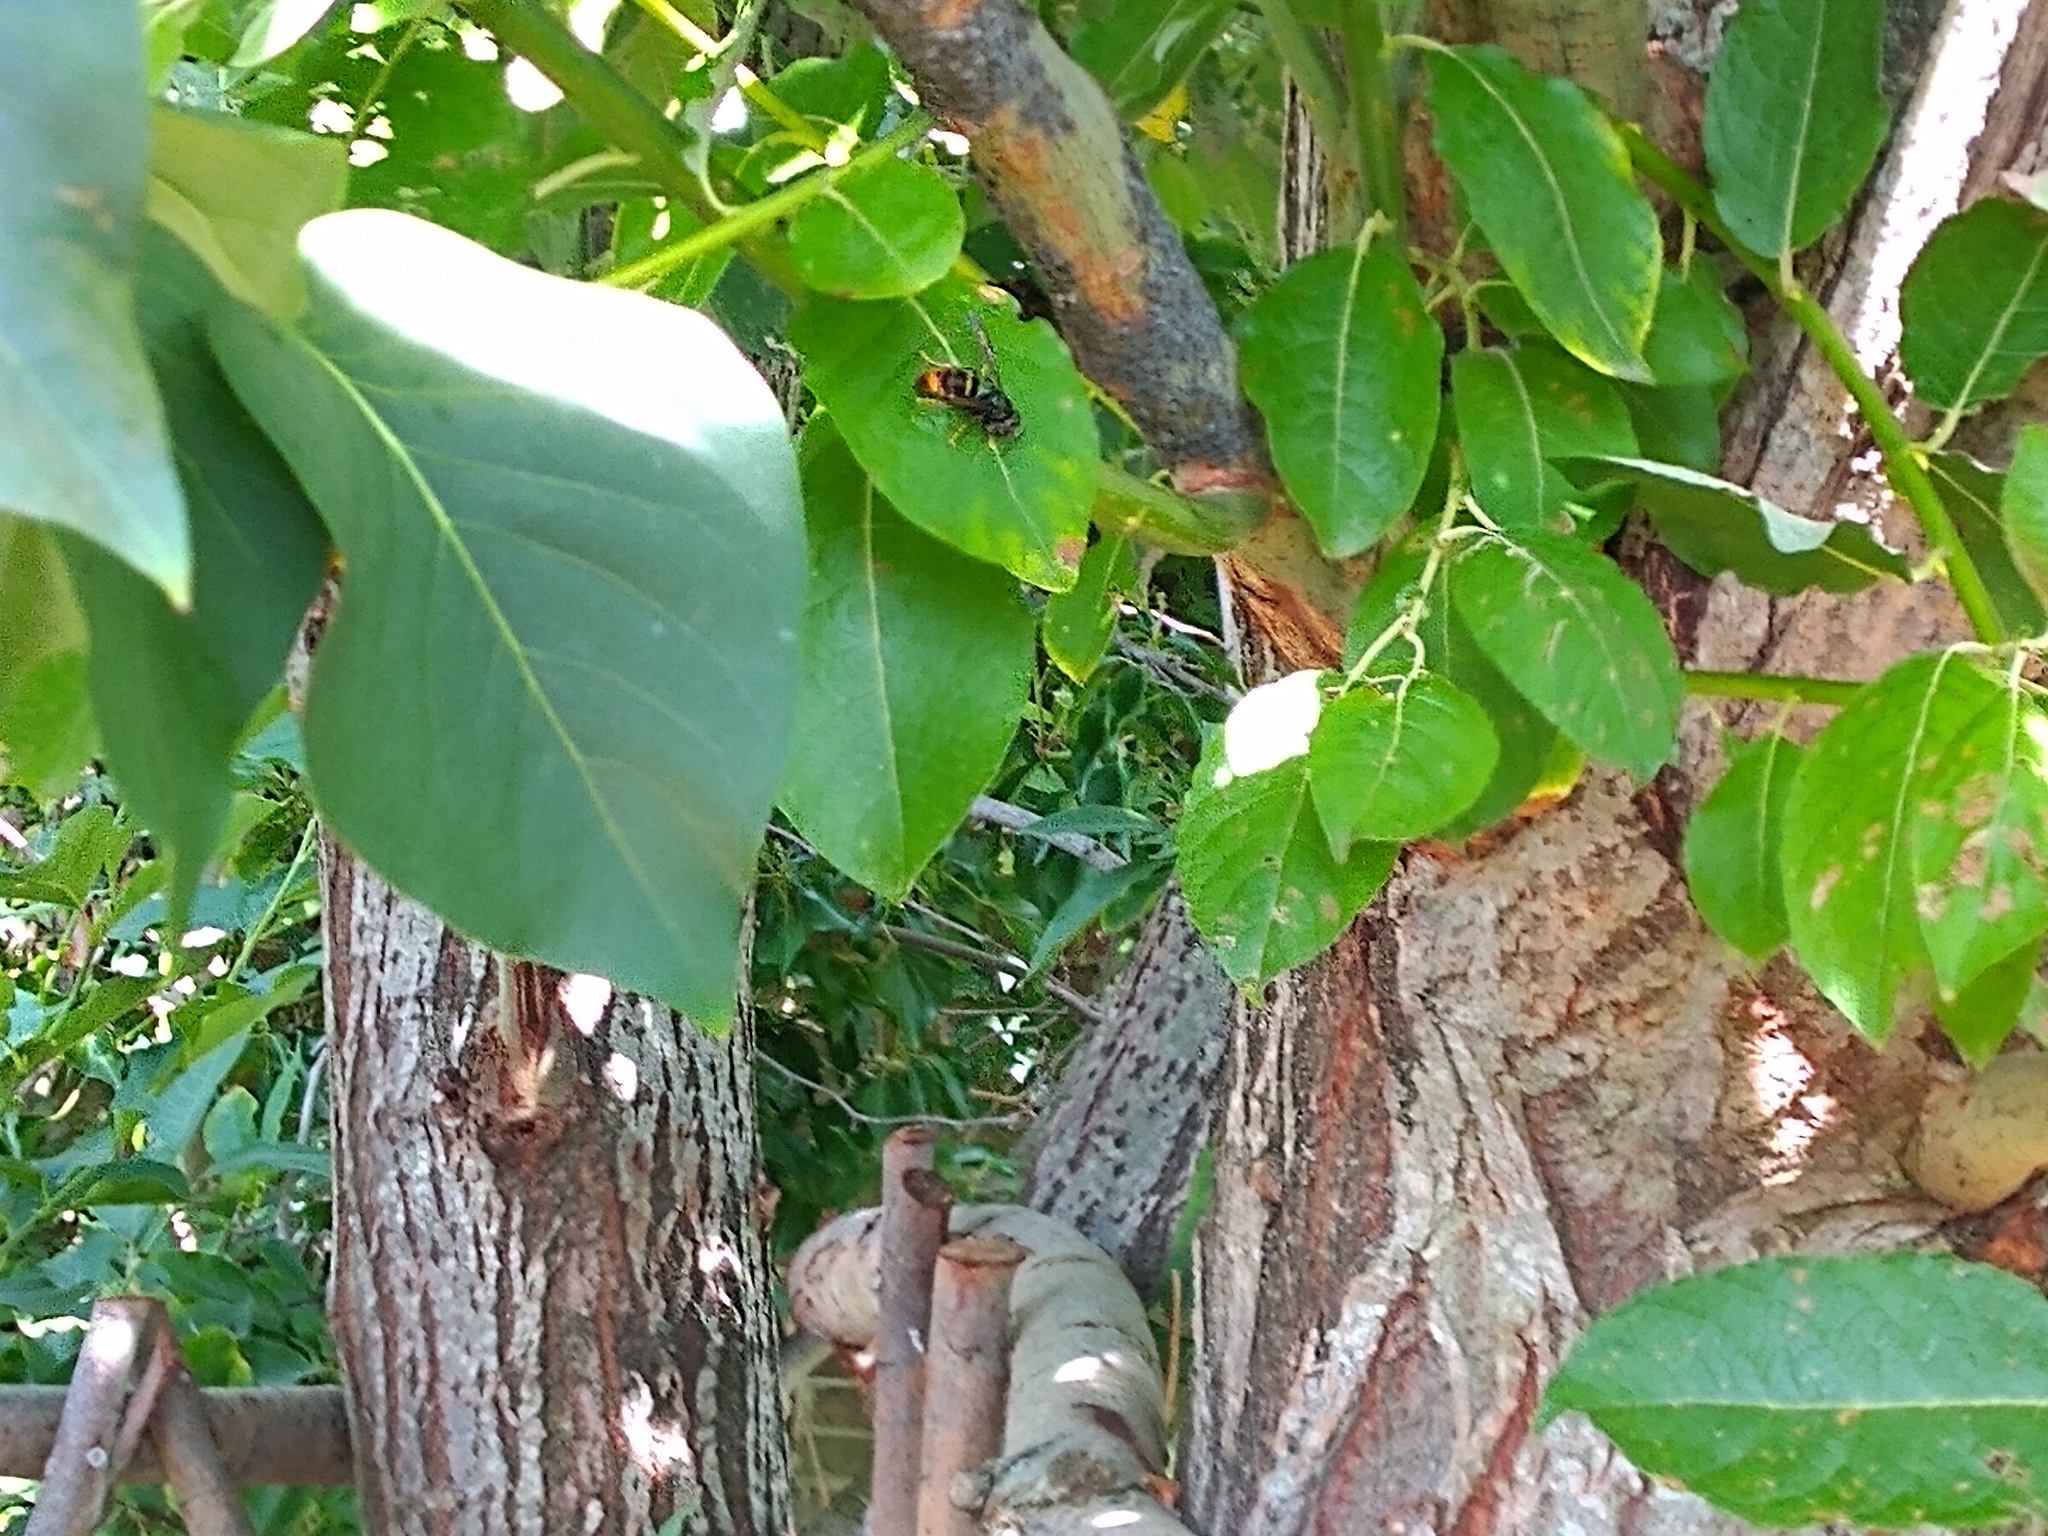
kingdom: Animalia
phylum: Arthropoda
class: Insecta
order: Hymenoptera
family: Vespidae
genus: Vespa
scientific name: Vespa velutina
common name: Asian hornet
